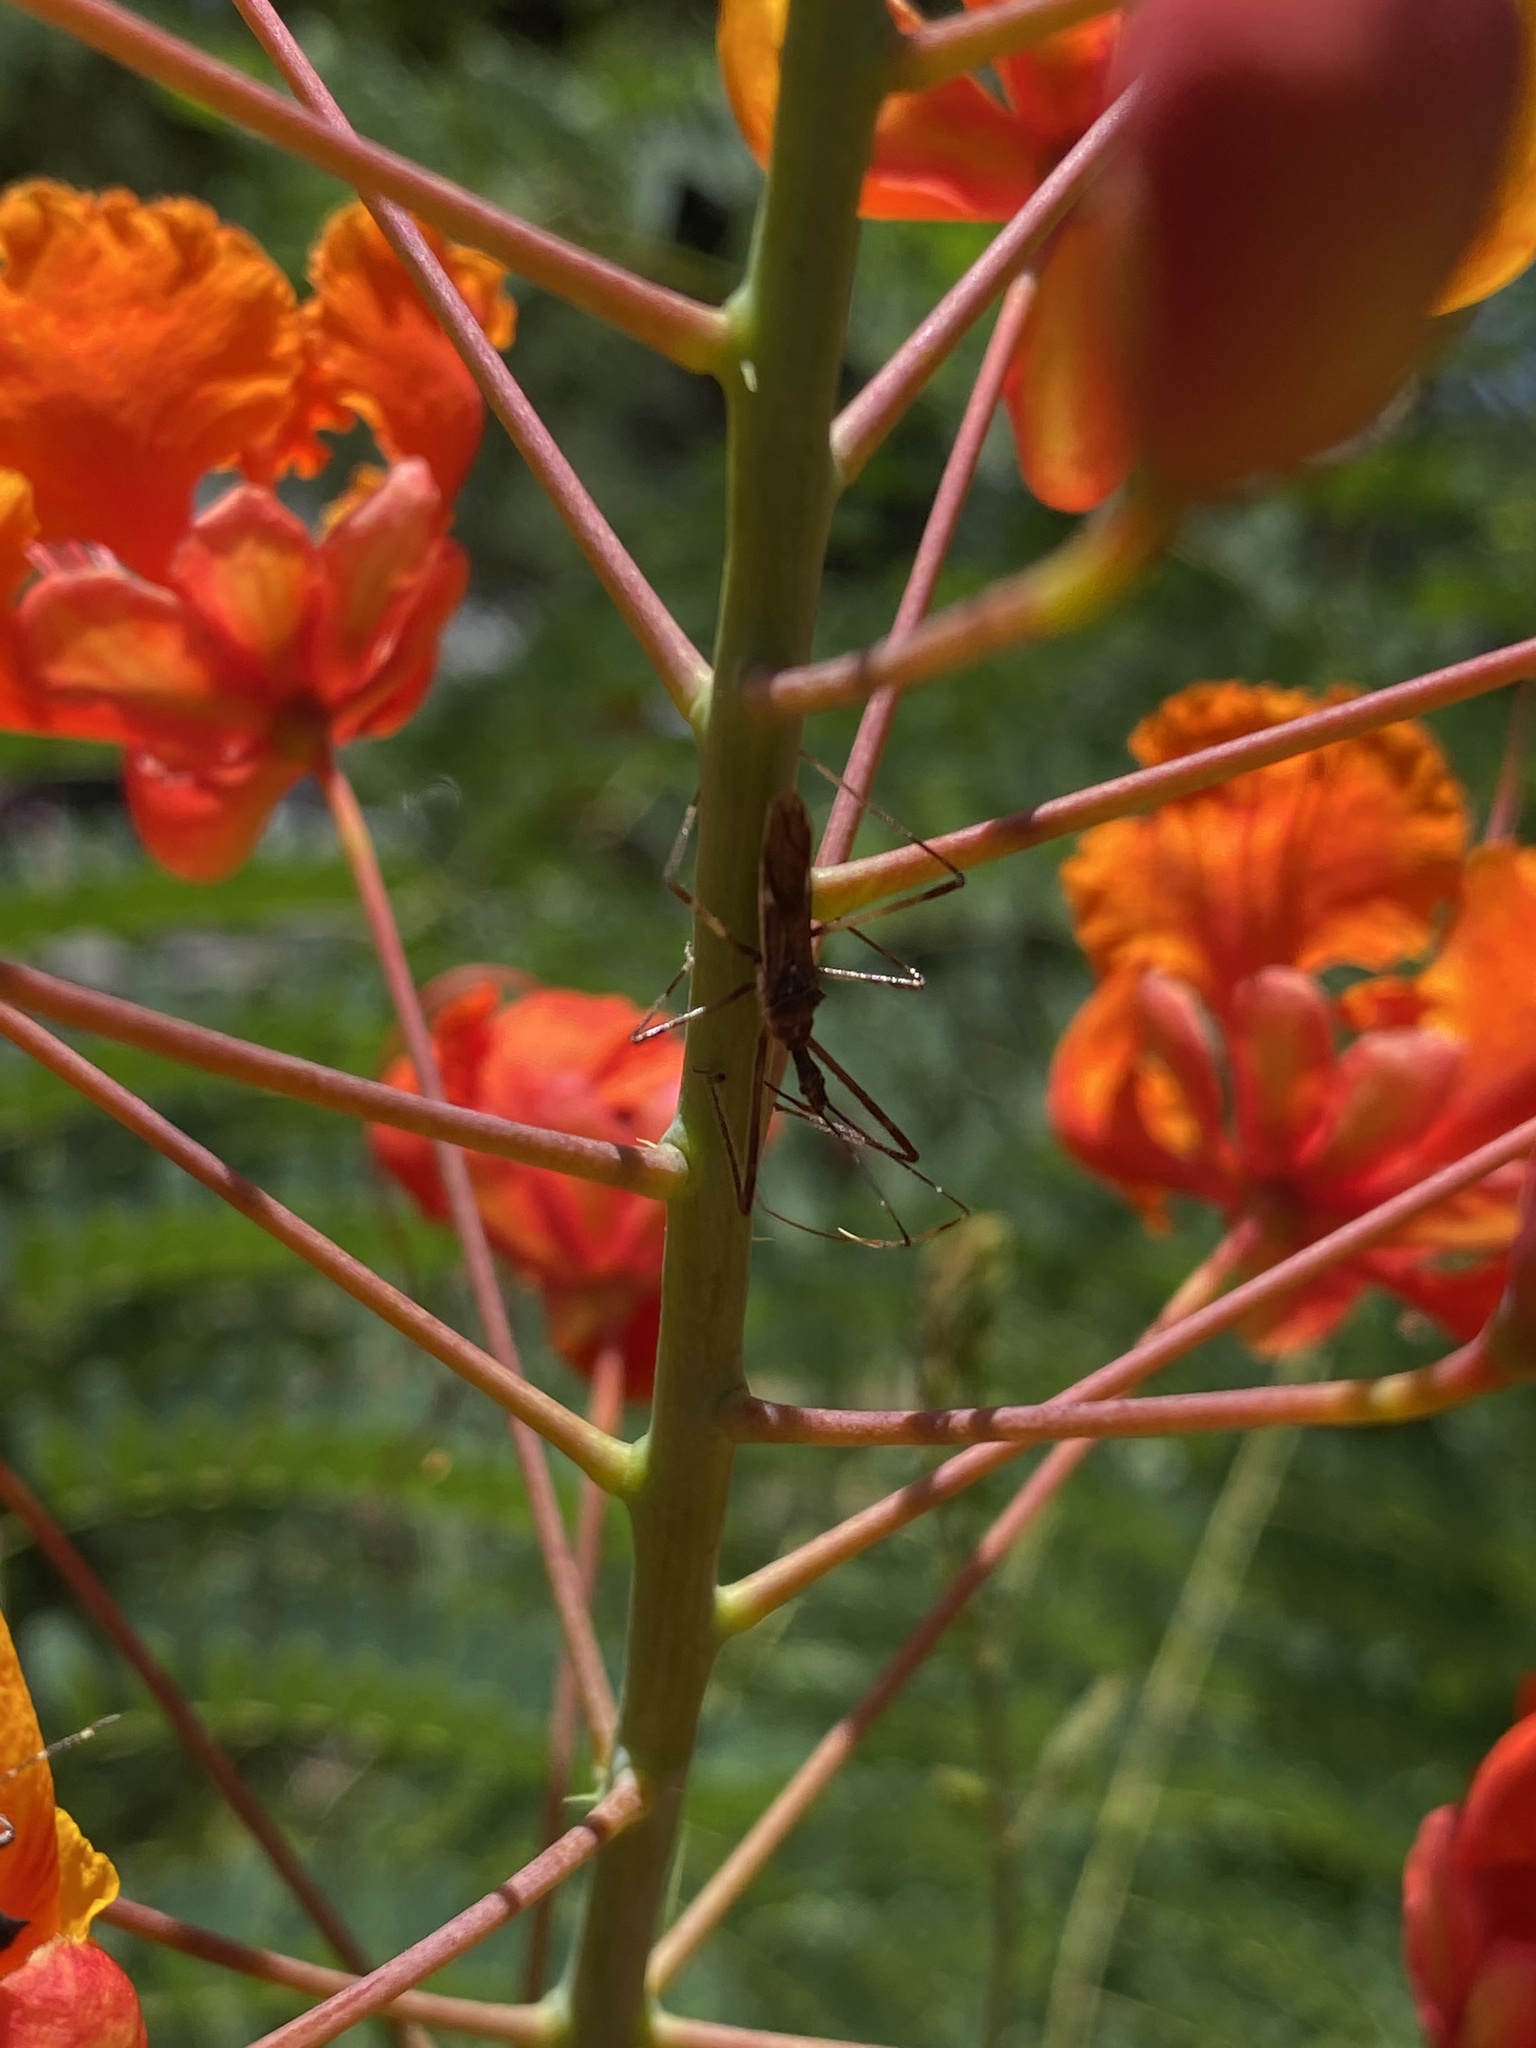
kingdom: Animalia
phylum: Arthropoda
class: Insecta
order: Hemiptera
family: Reduviidae
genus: Zelus
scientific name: Zelus tetracanthus
